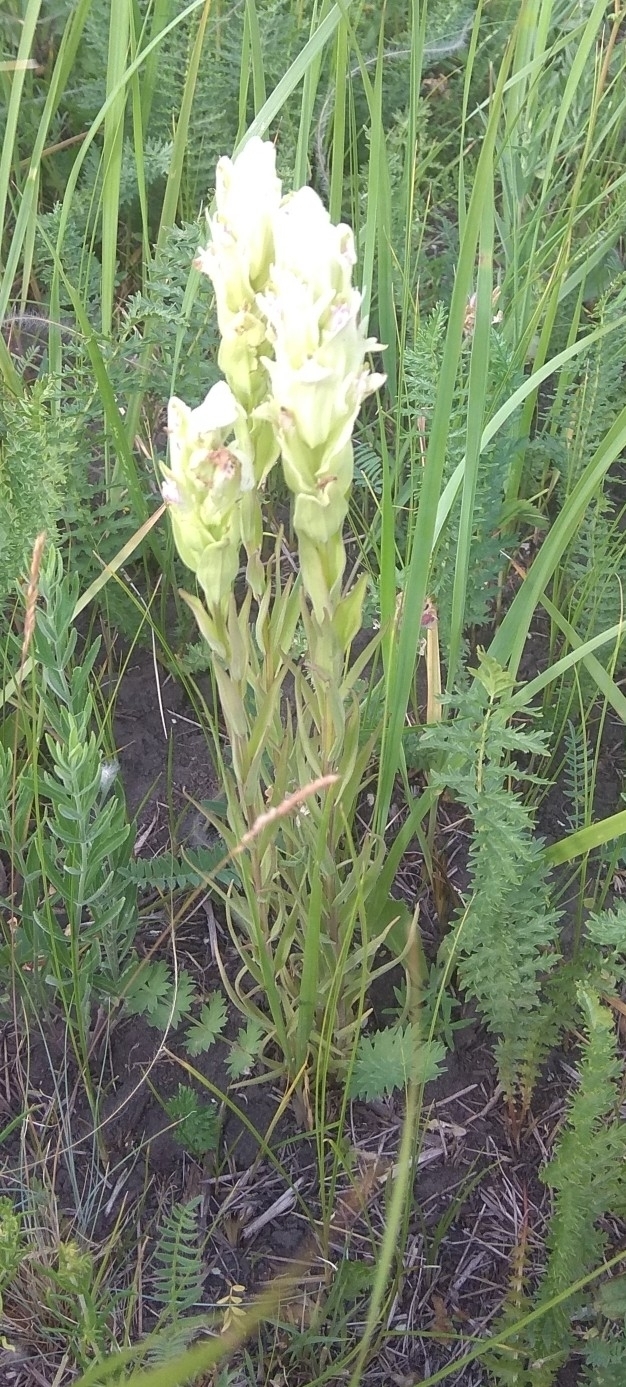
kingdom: Plantae
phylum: Tracheophyta
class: Magnoliopsida
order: Lamiales
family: Orobanchaceae
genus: Castilleja
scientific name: Castilleja pallida
